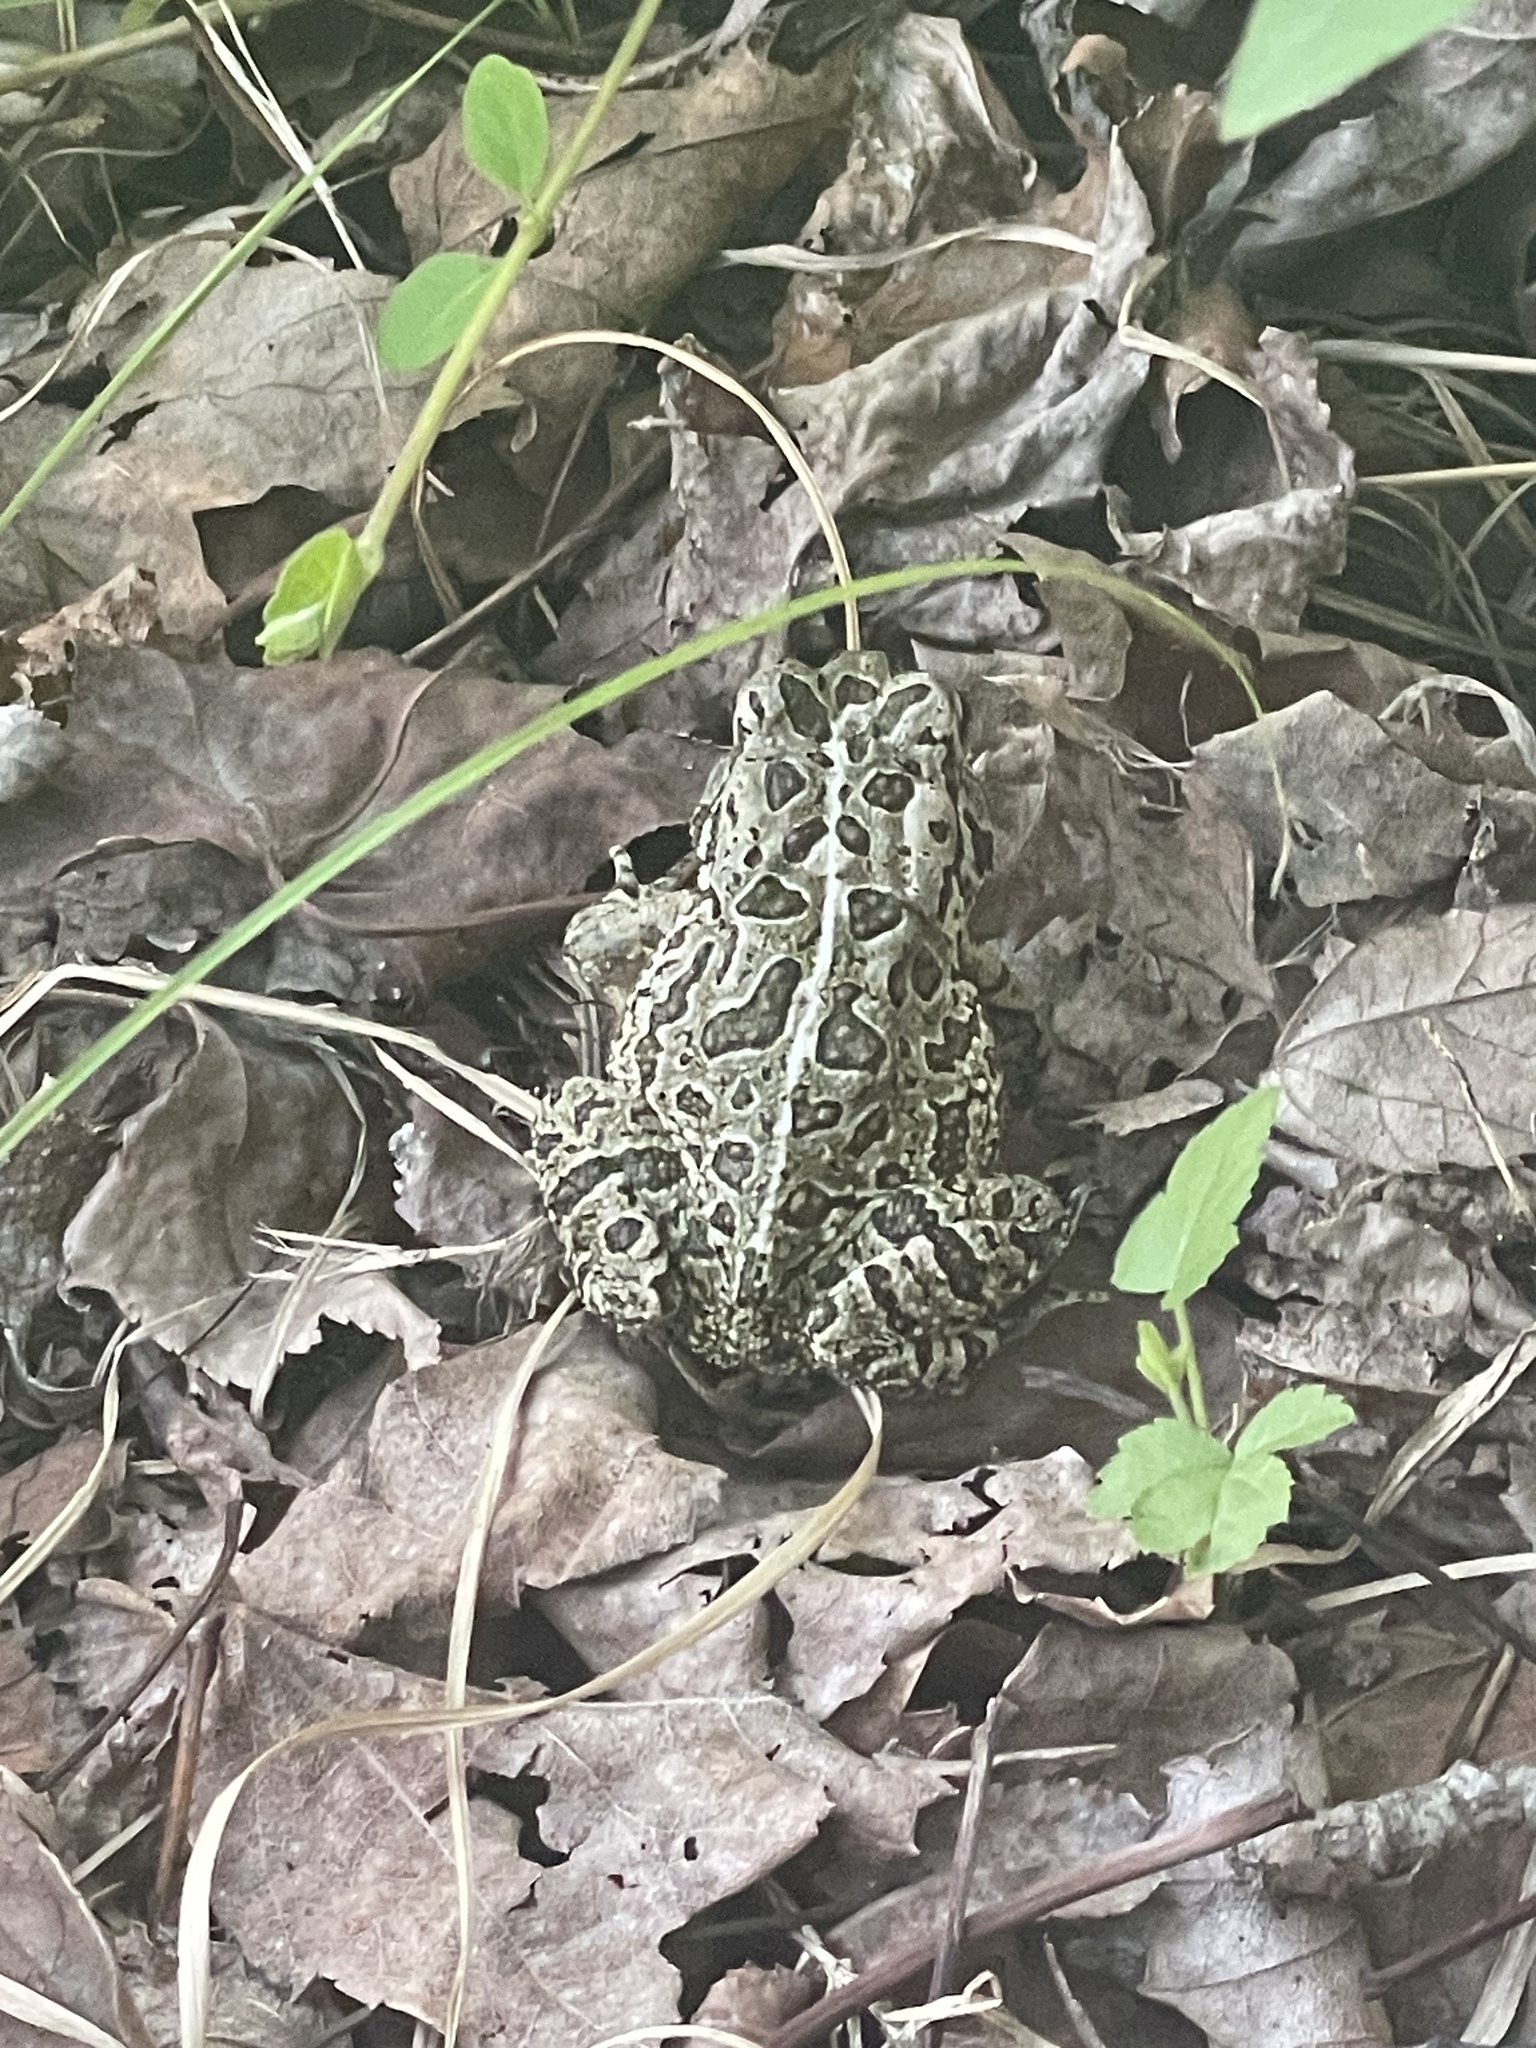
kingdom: Animalia
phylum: Chordata
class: Amphibia
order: Anura
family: Bufonidae
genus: Anaxyrus
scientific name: Anaxyrus fowleri
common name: Fowler's toad
